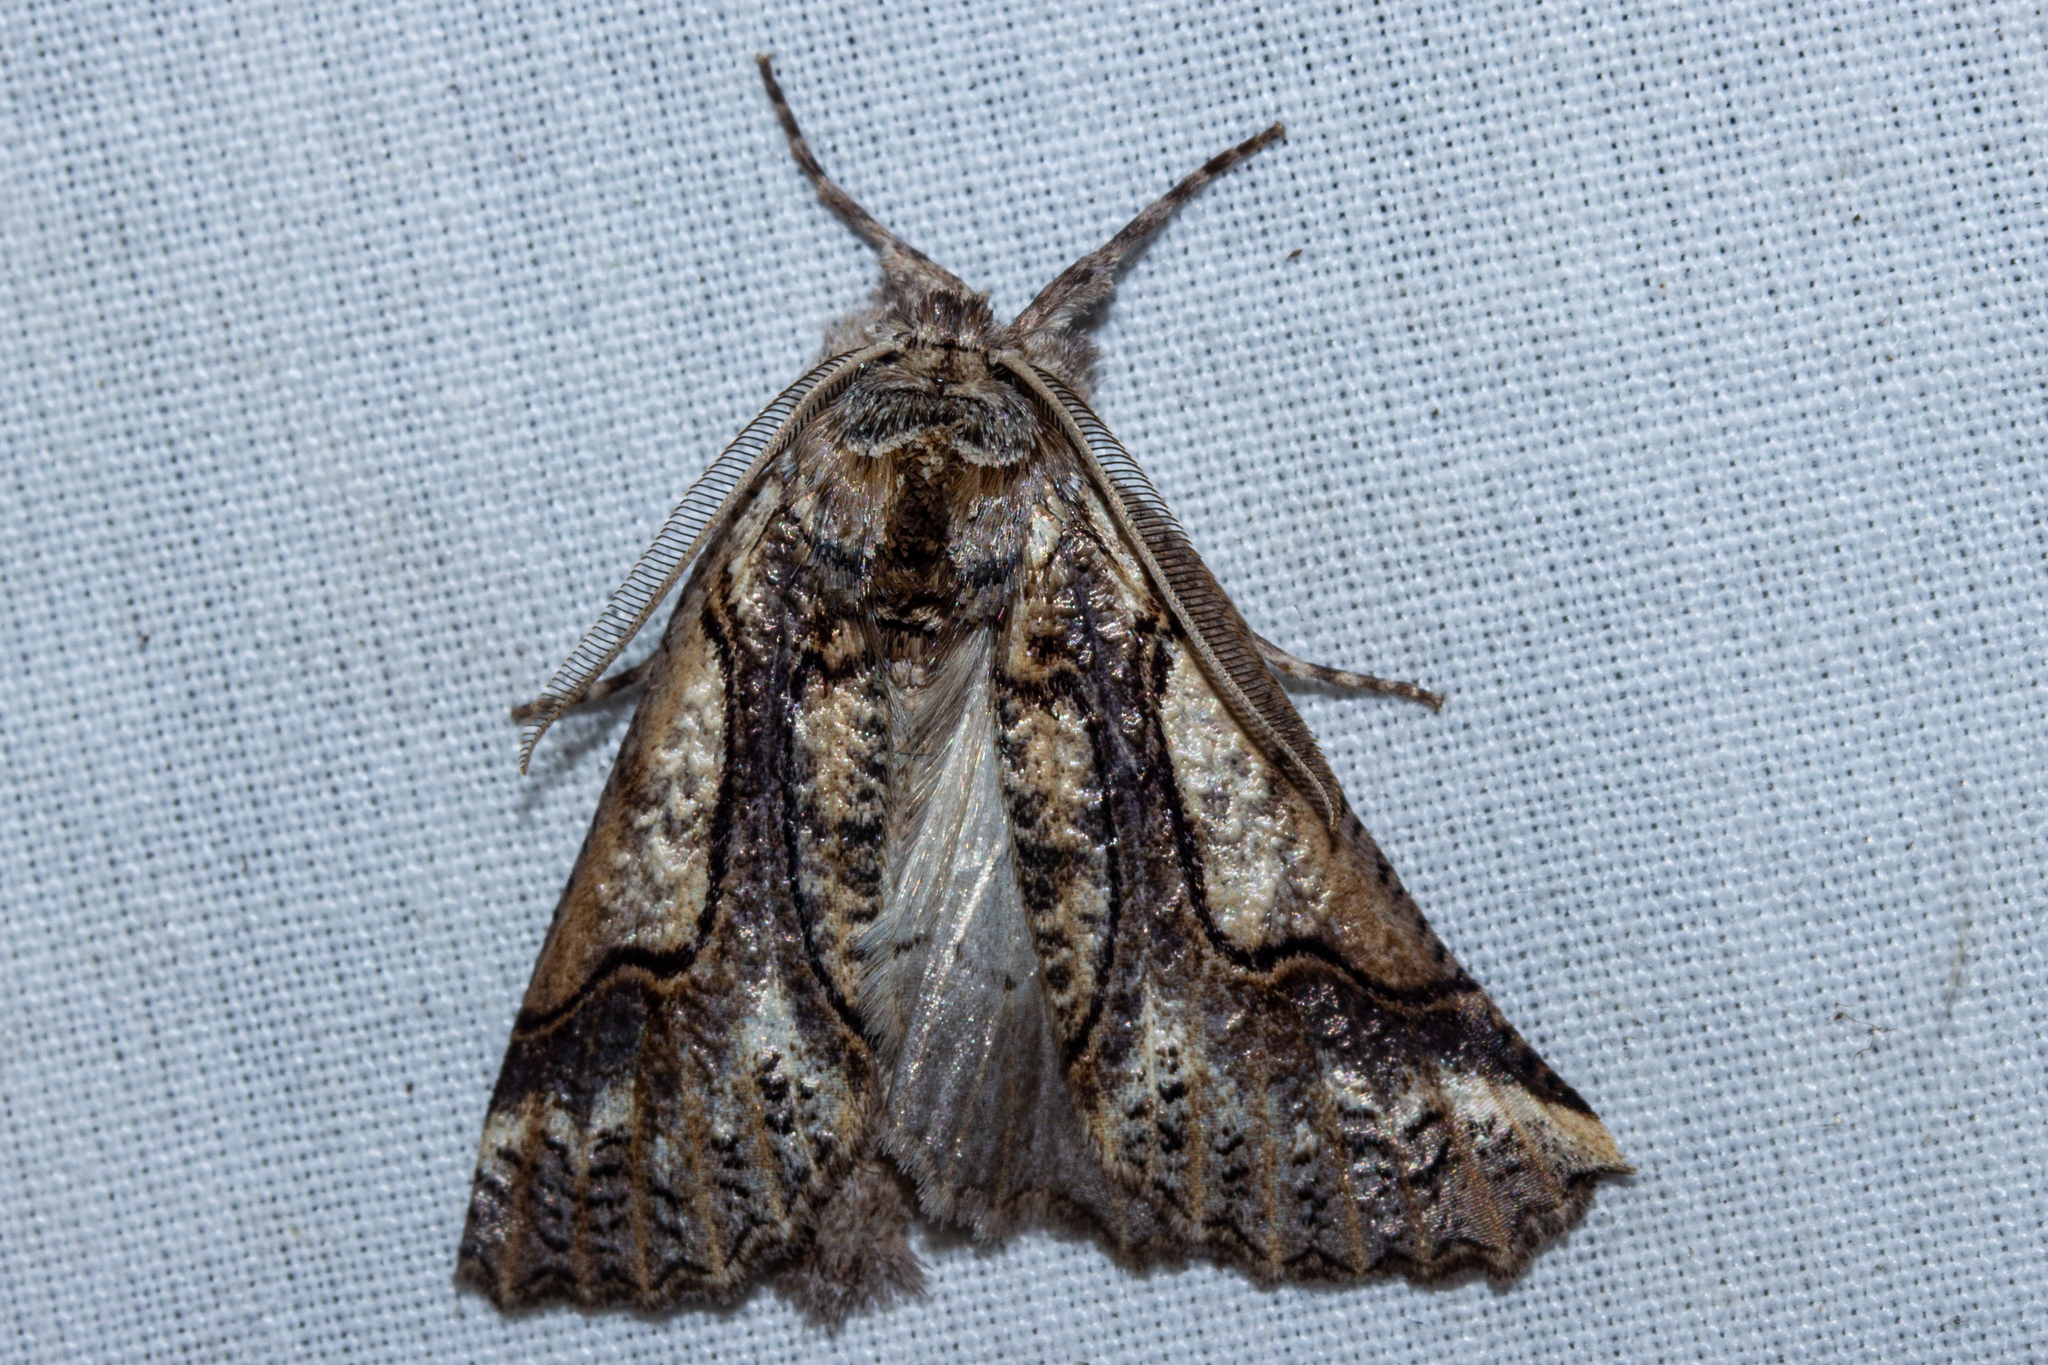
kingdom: Animalia
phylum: Arthropoda
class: Insecta
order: Lepidoptera
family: Geometridae
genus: Declana
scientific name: Declana
